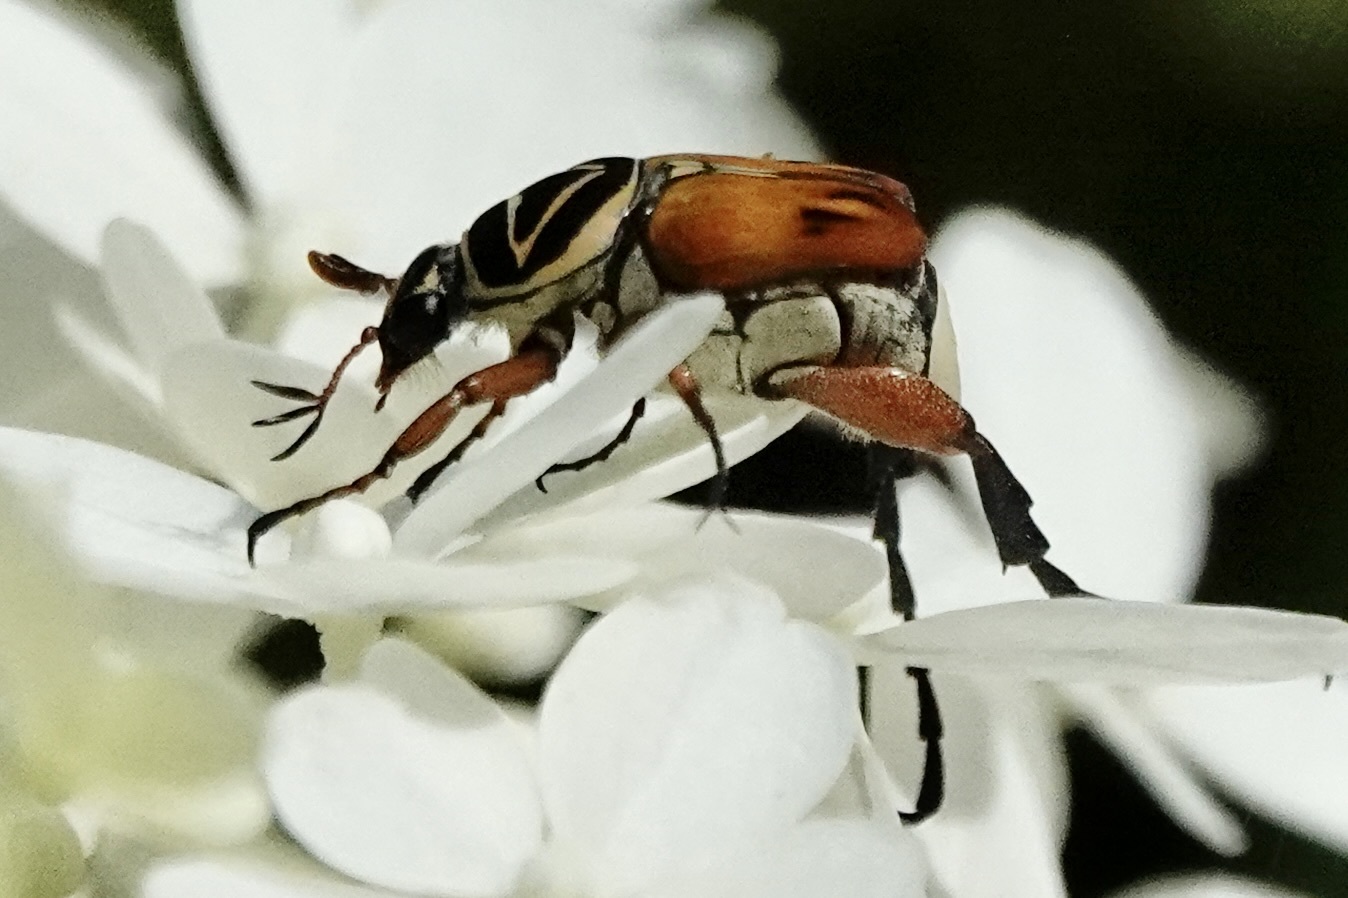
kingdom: Animalia
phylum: Arthropoda
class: Insecta
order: Coleoptera
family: Scarabaeidae
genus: Trigonopeltastes
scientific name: Trigonopeltastes delta
